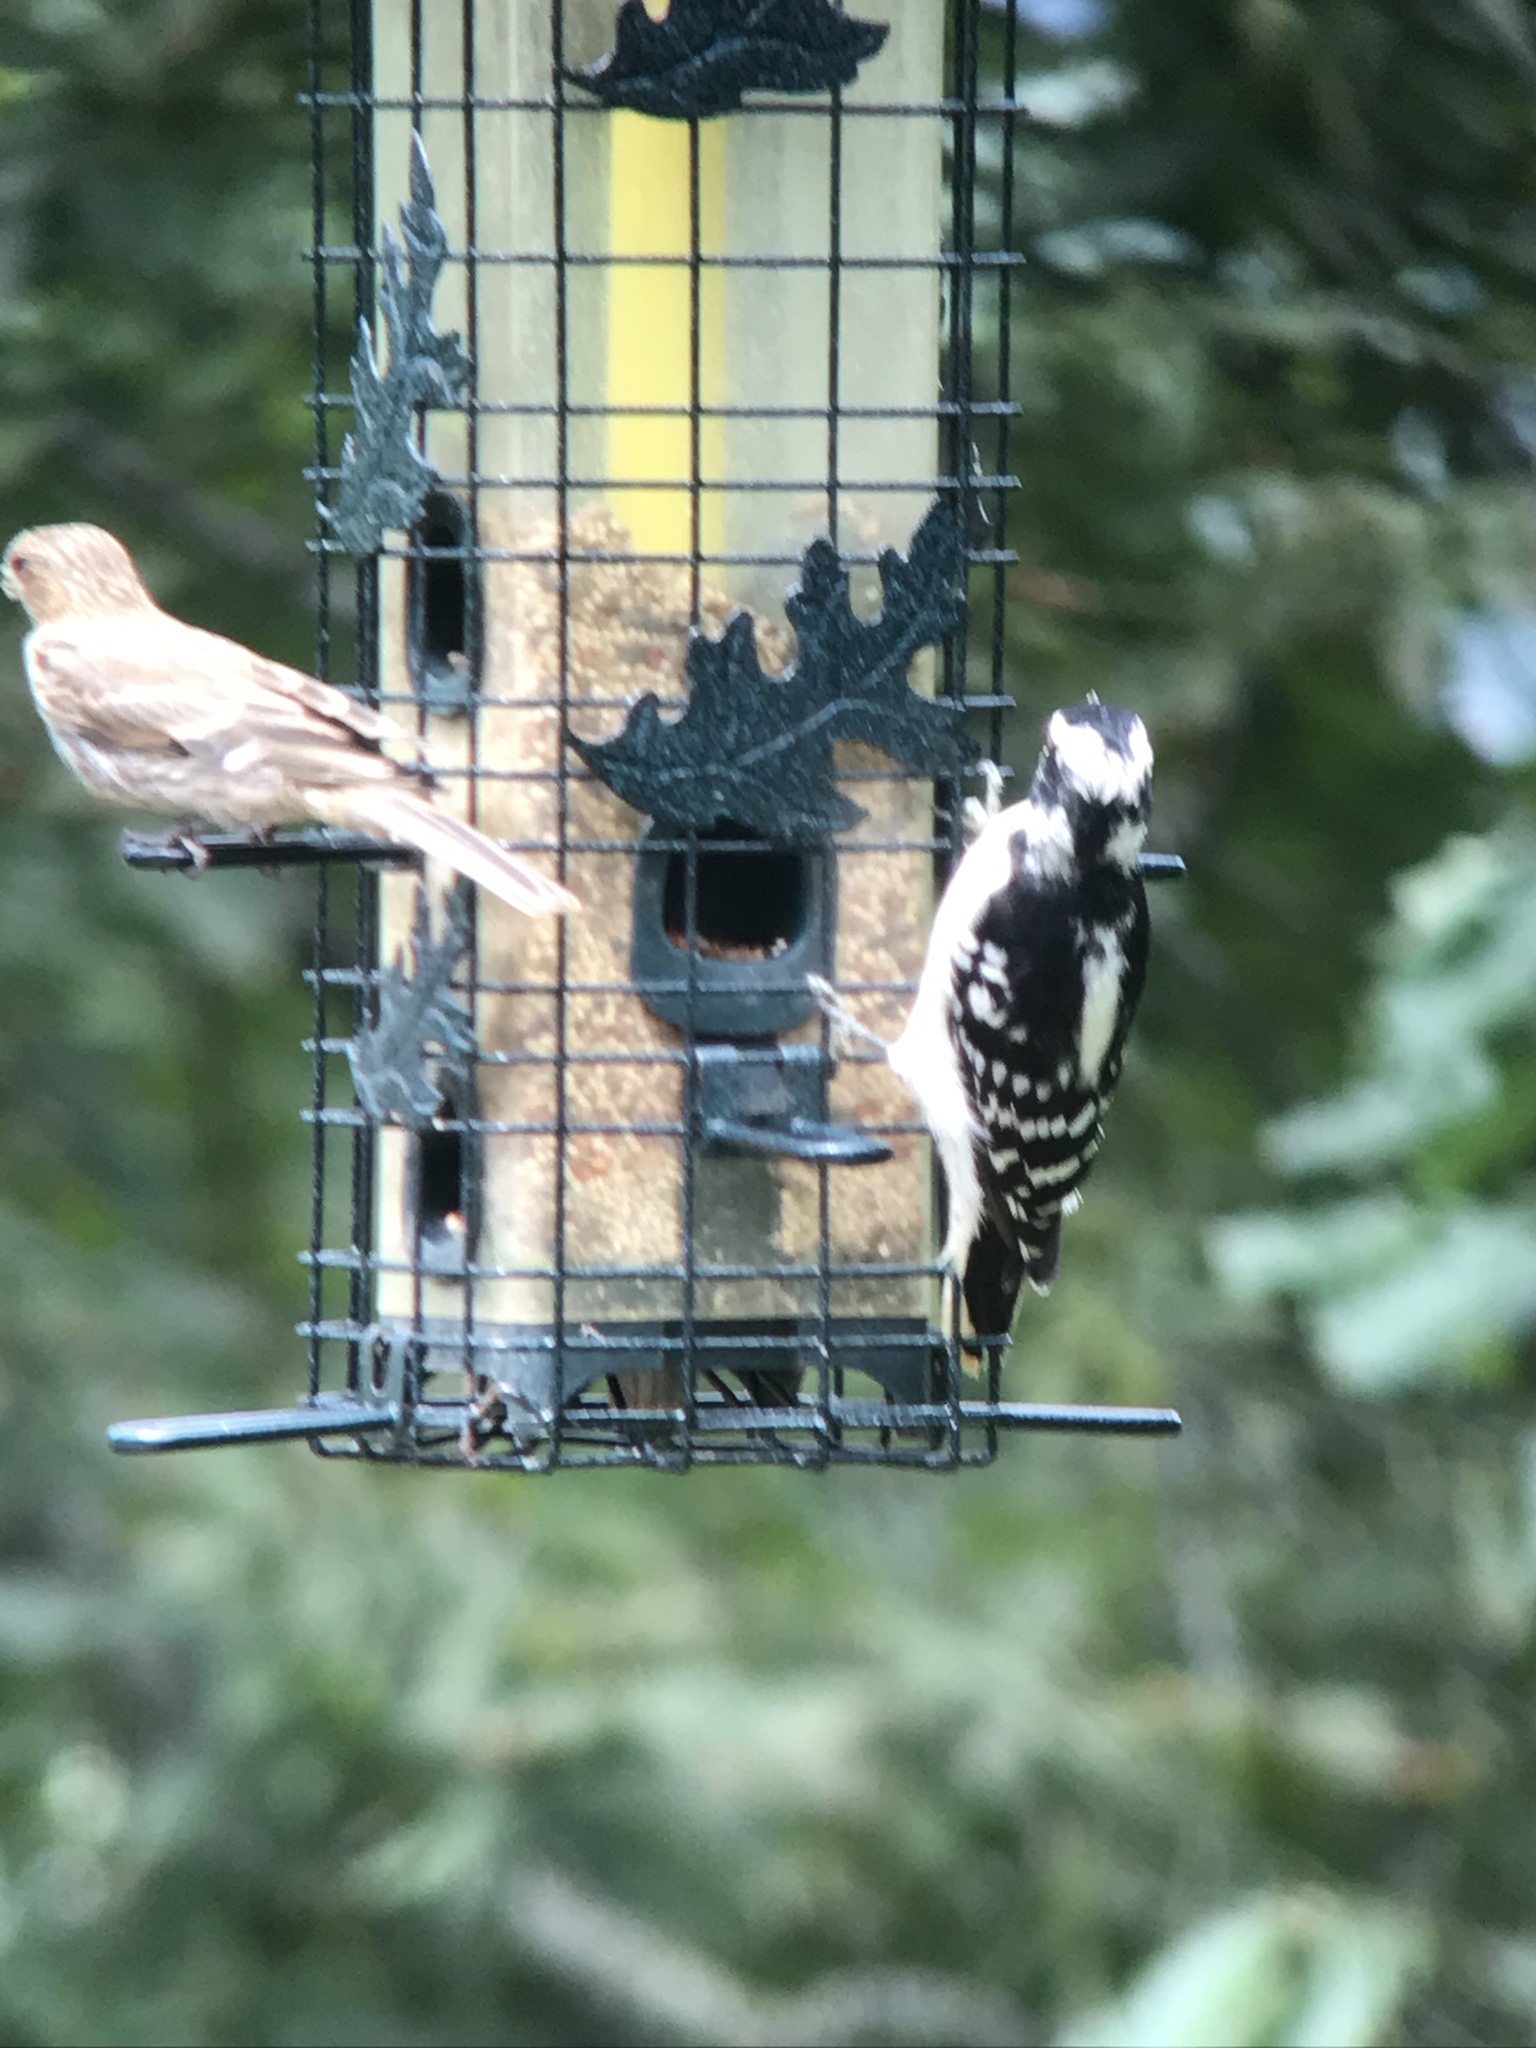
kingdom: Animalia
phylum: Chordata
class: Aves
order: Piciformes
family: Picidae
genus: Dryobates
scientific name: Dryobates pubescens
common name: Downy woodpecker
